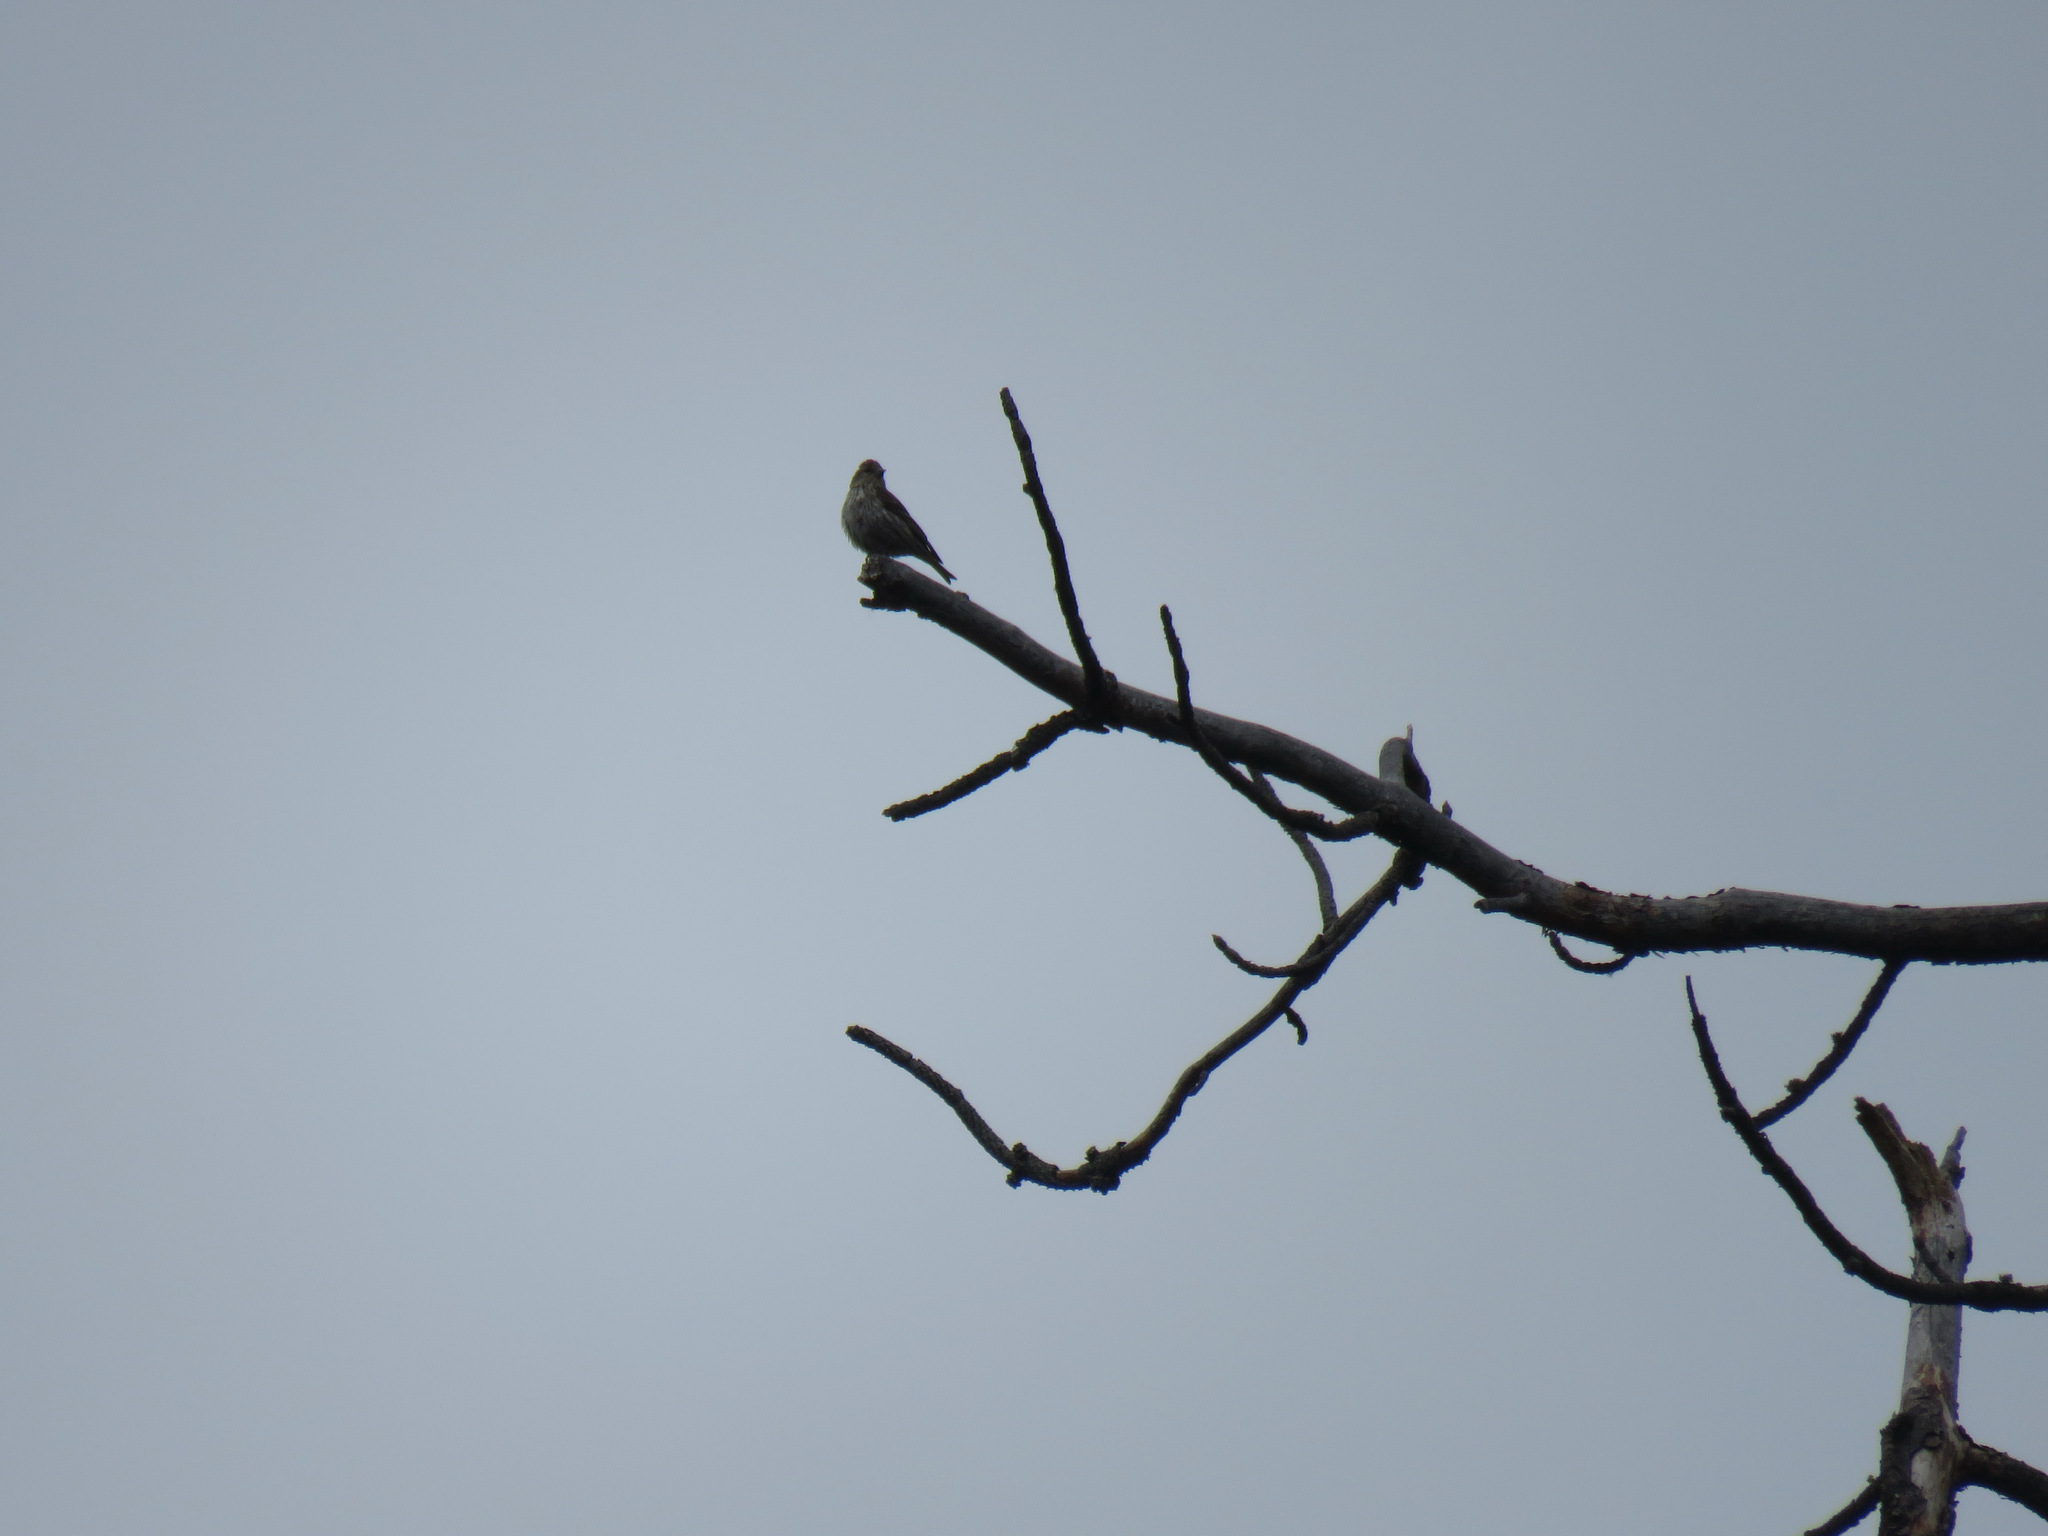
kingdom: Animalia
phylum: Chordata
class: Aves
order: Passeriformes
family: Fringillidae
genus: Spinus
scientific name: Spinus pinus
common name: Pine siskin
